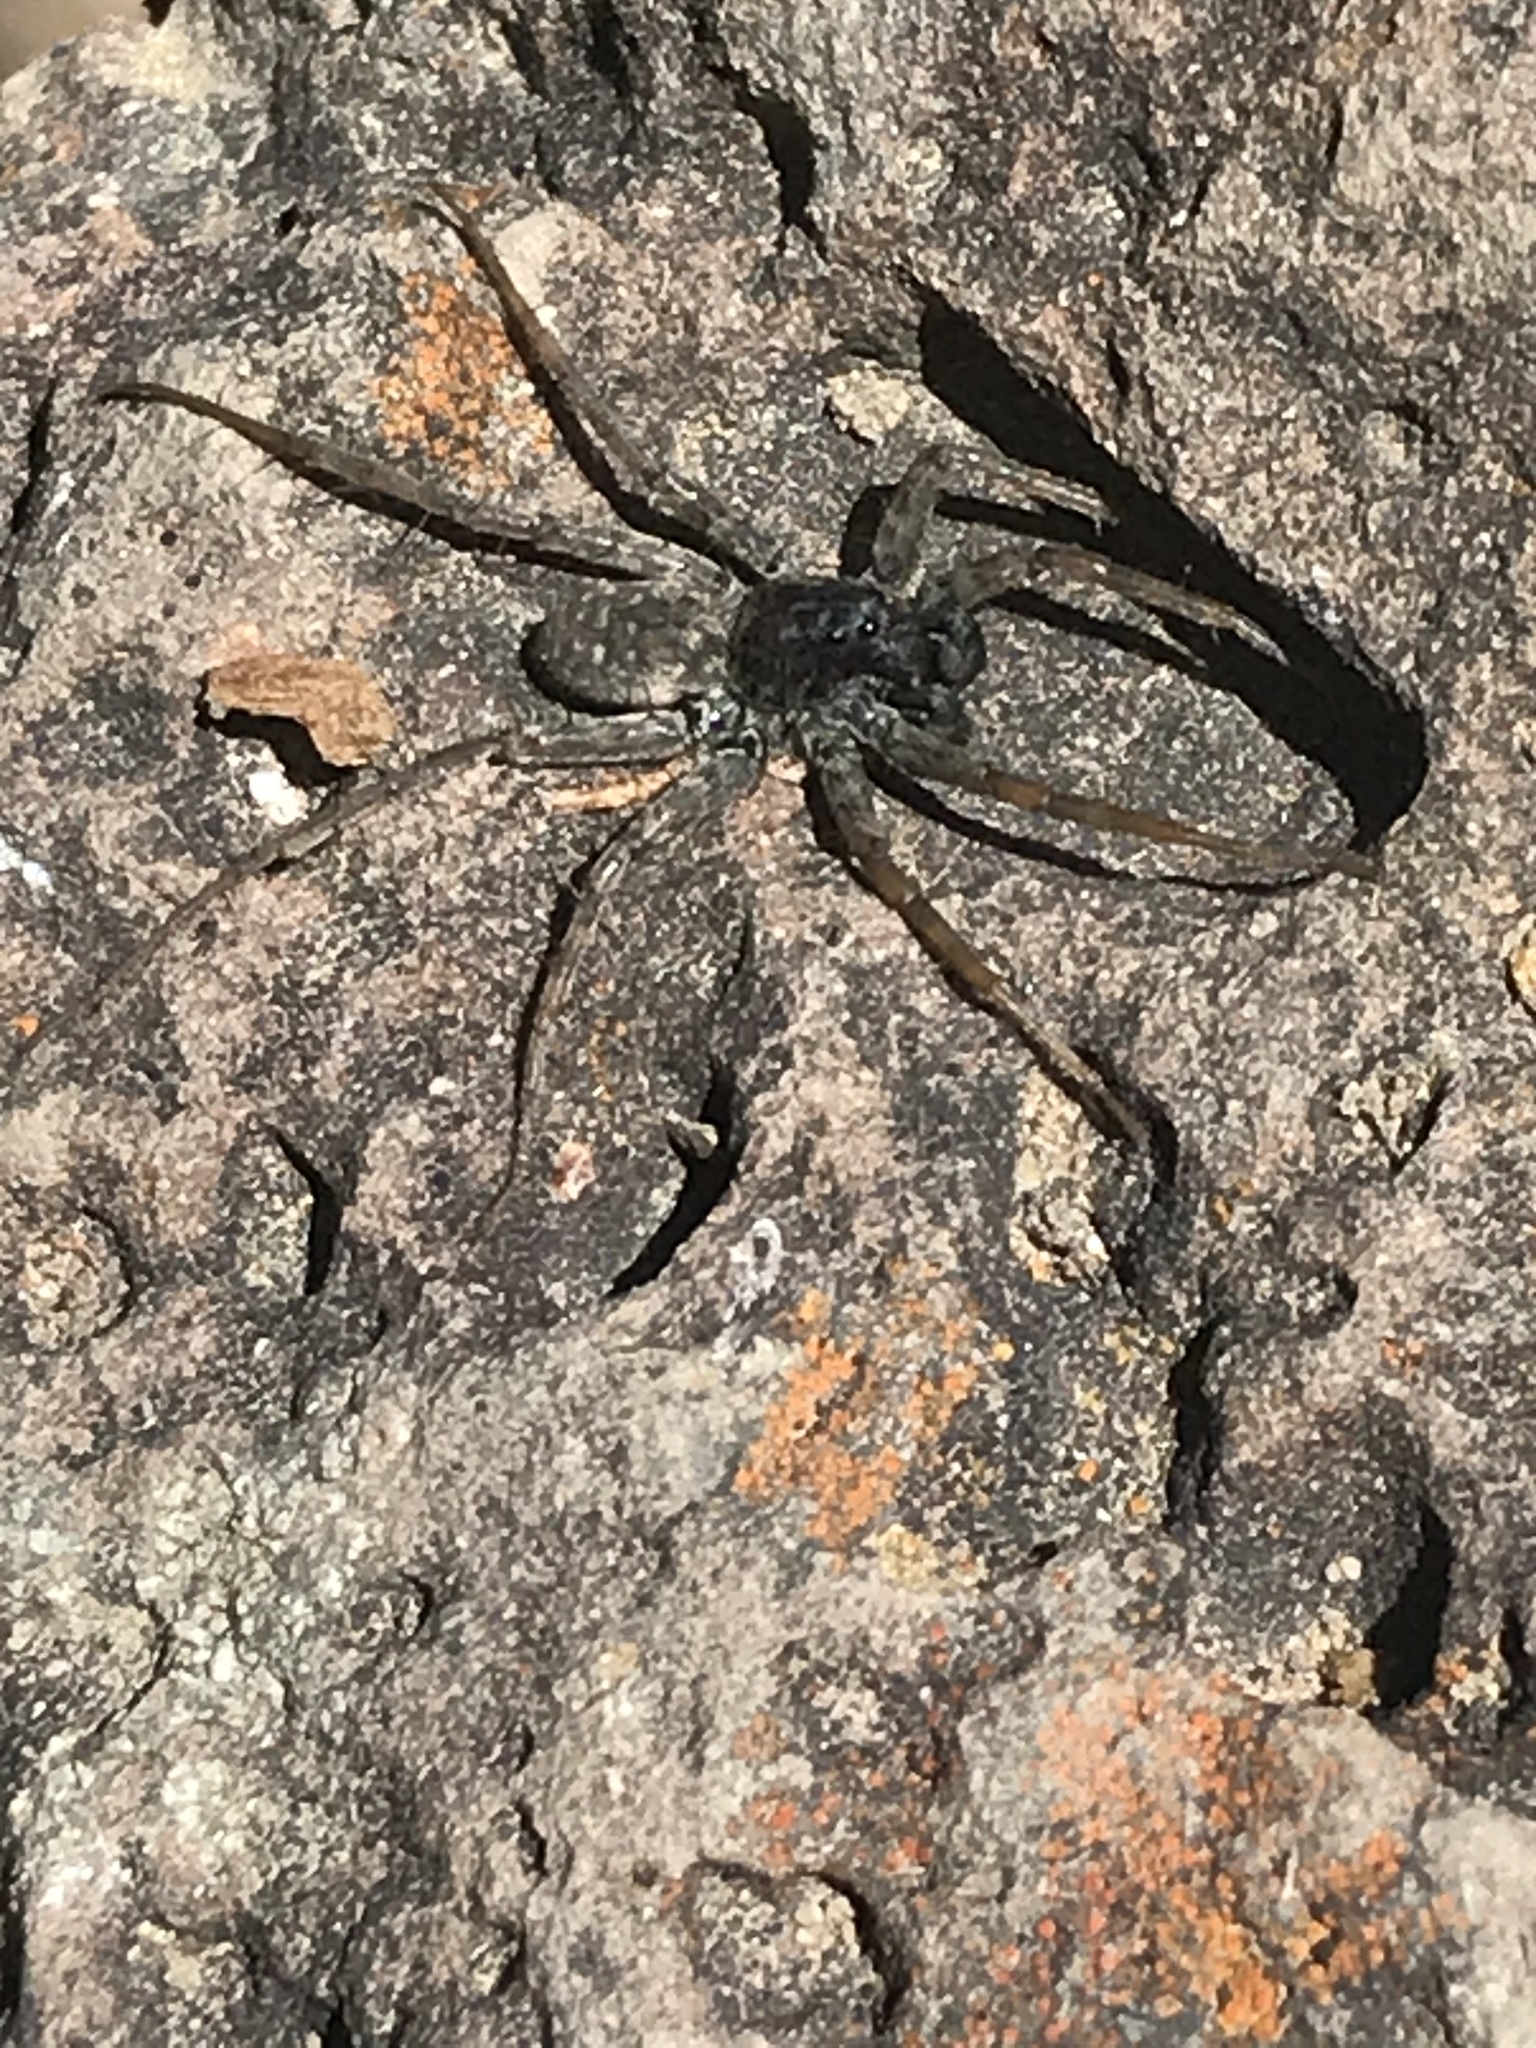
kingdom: Animalia
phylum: Arthropoda
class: Arachnida
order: Araneae
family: Lycosidae
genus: Pardosa
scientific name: Pardosa valens
